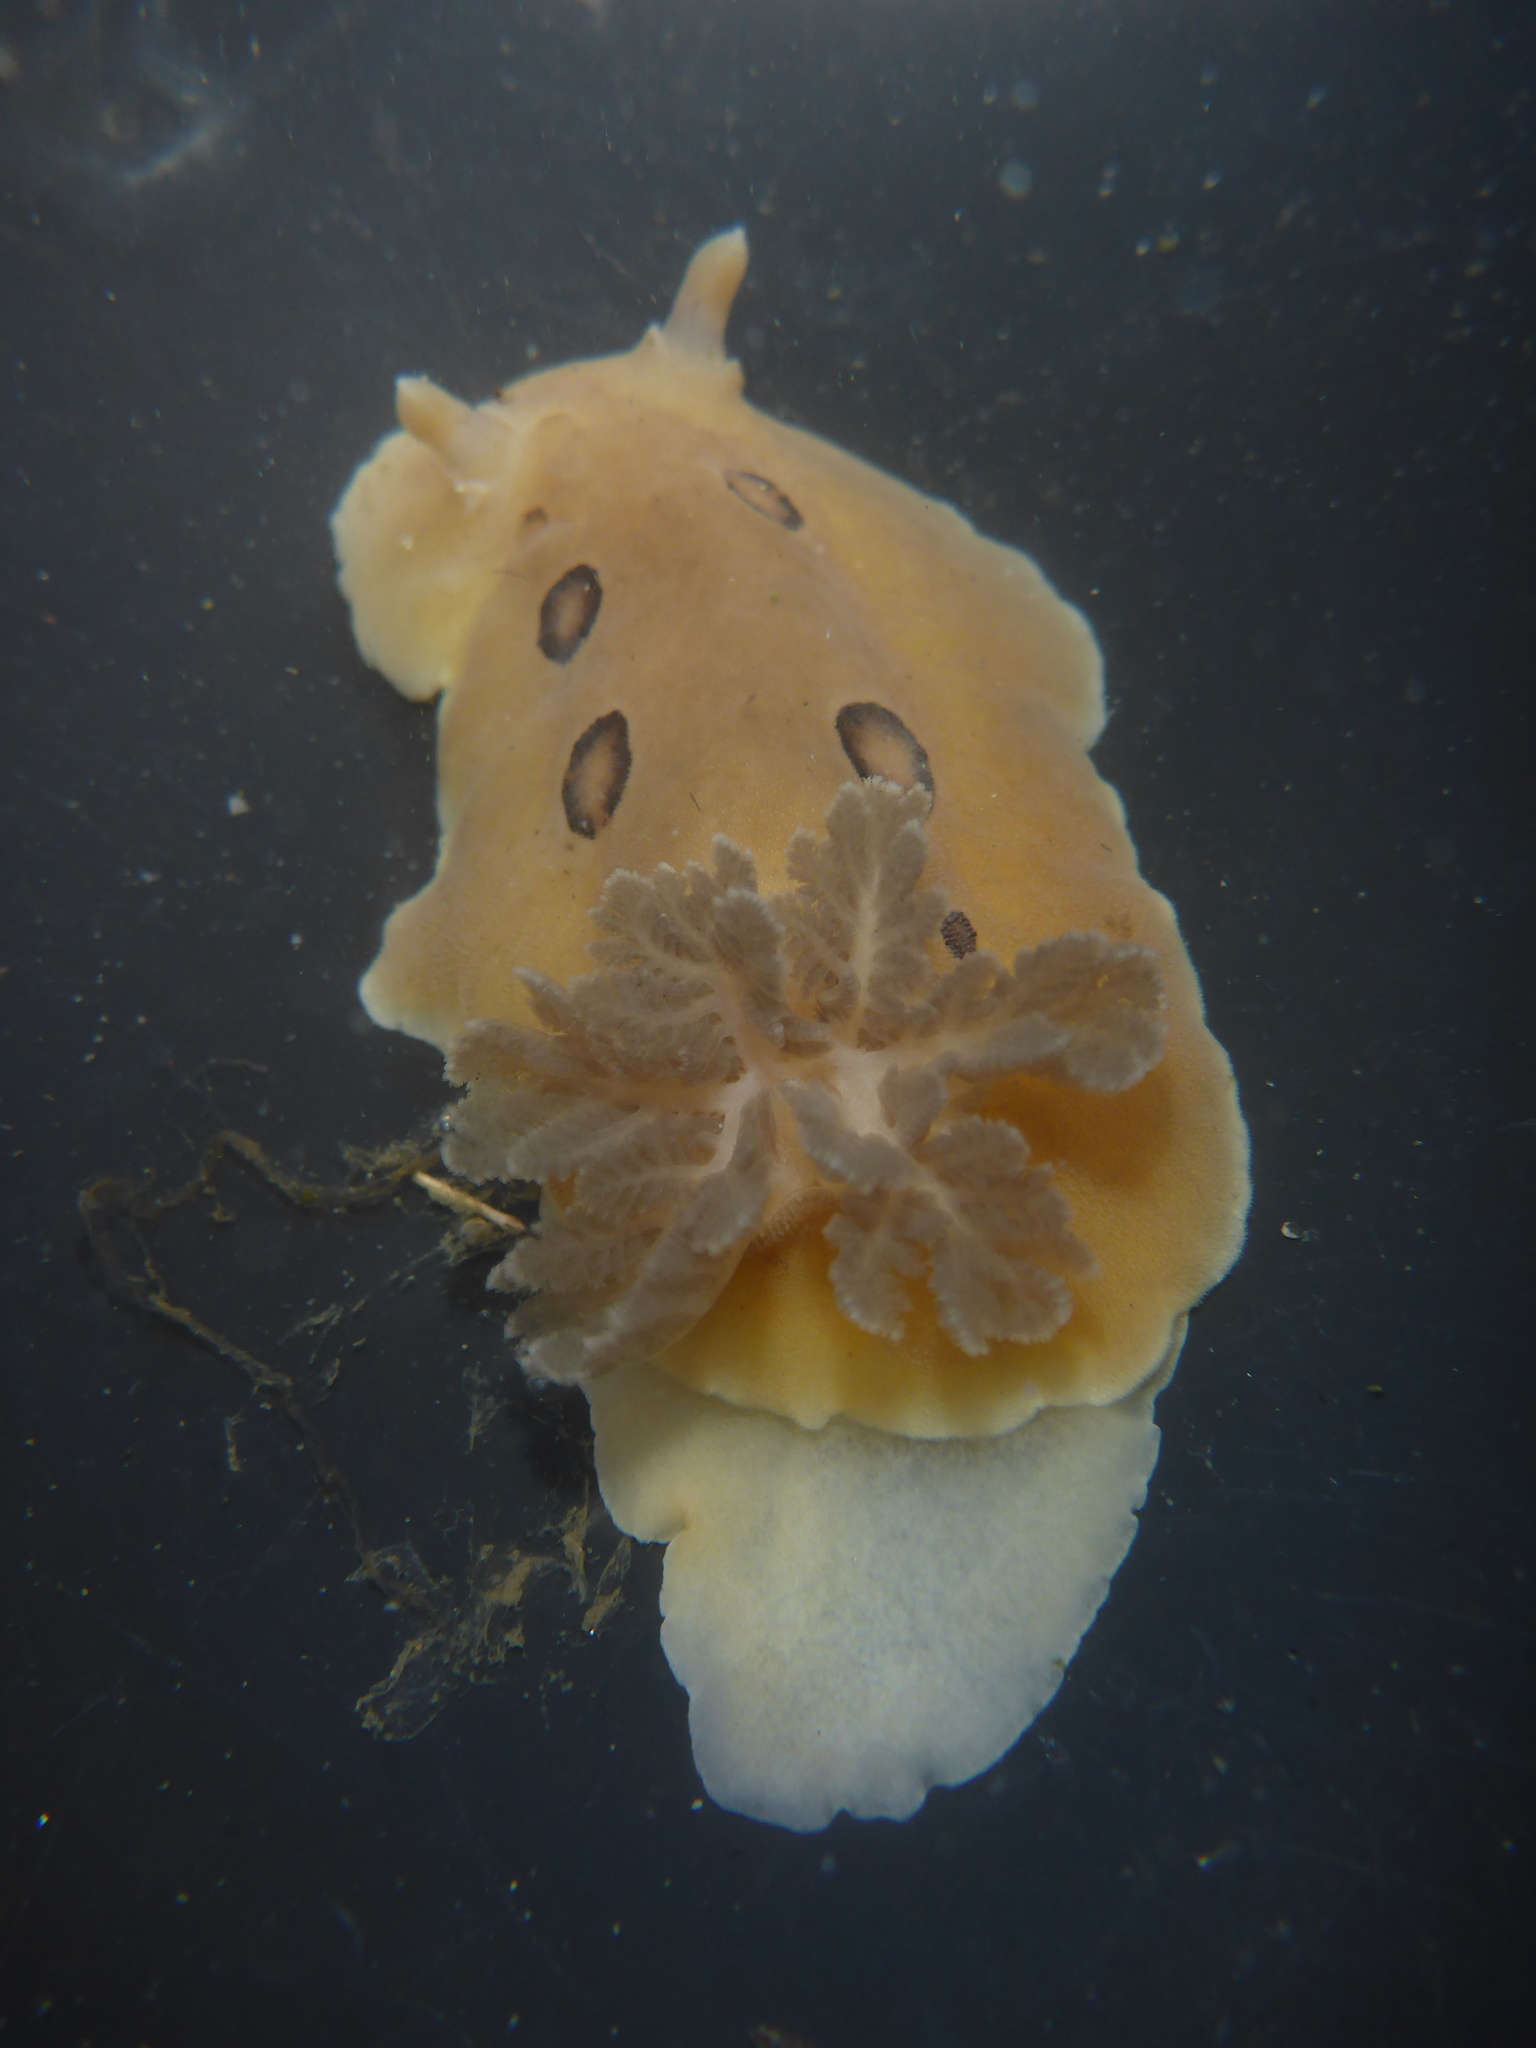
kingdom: Animalia
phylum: Mollusca
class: Gastropoda
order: Nudibranchia
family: Discodorididae
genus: Diaulula
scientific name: Diaulula sandiegensis
